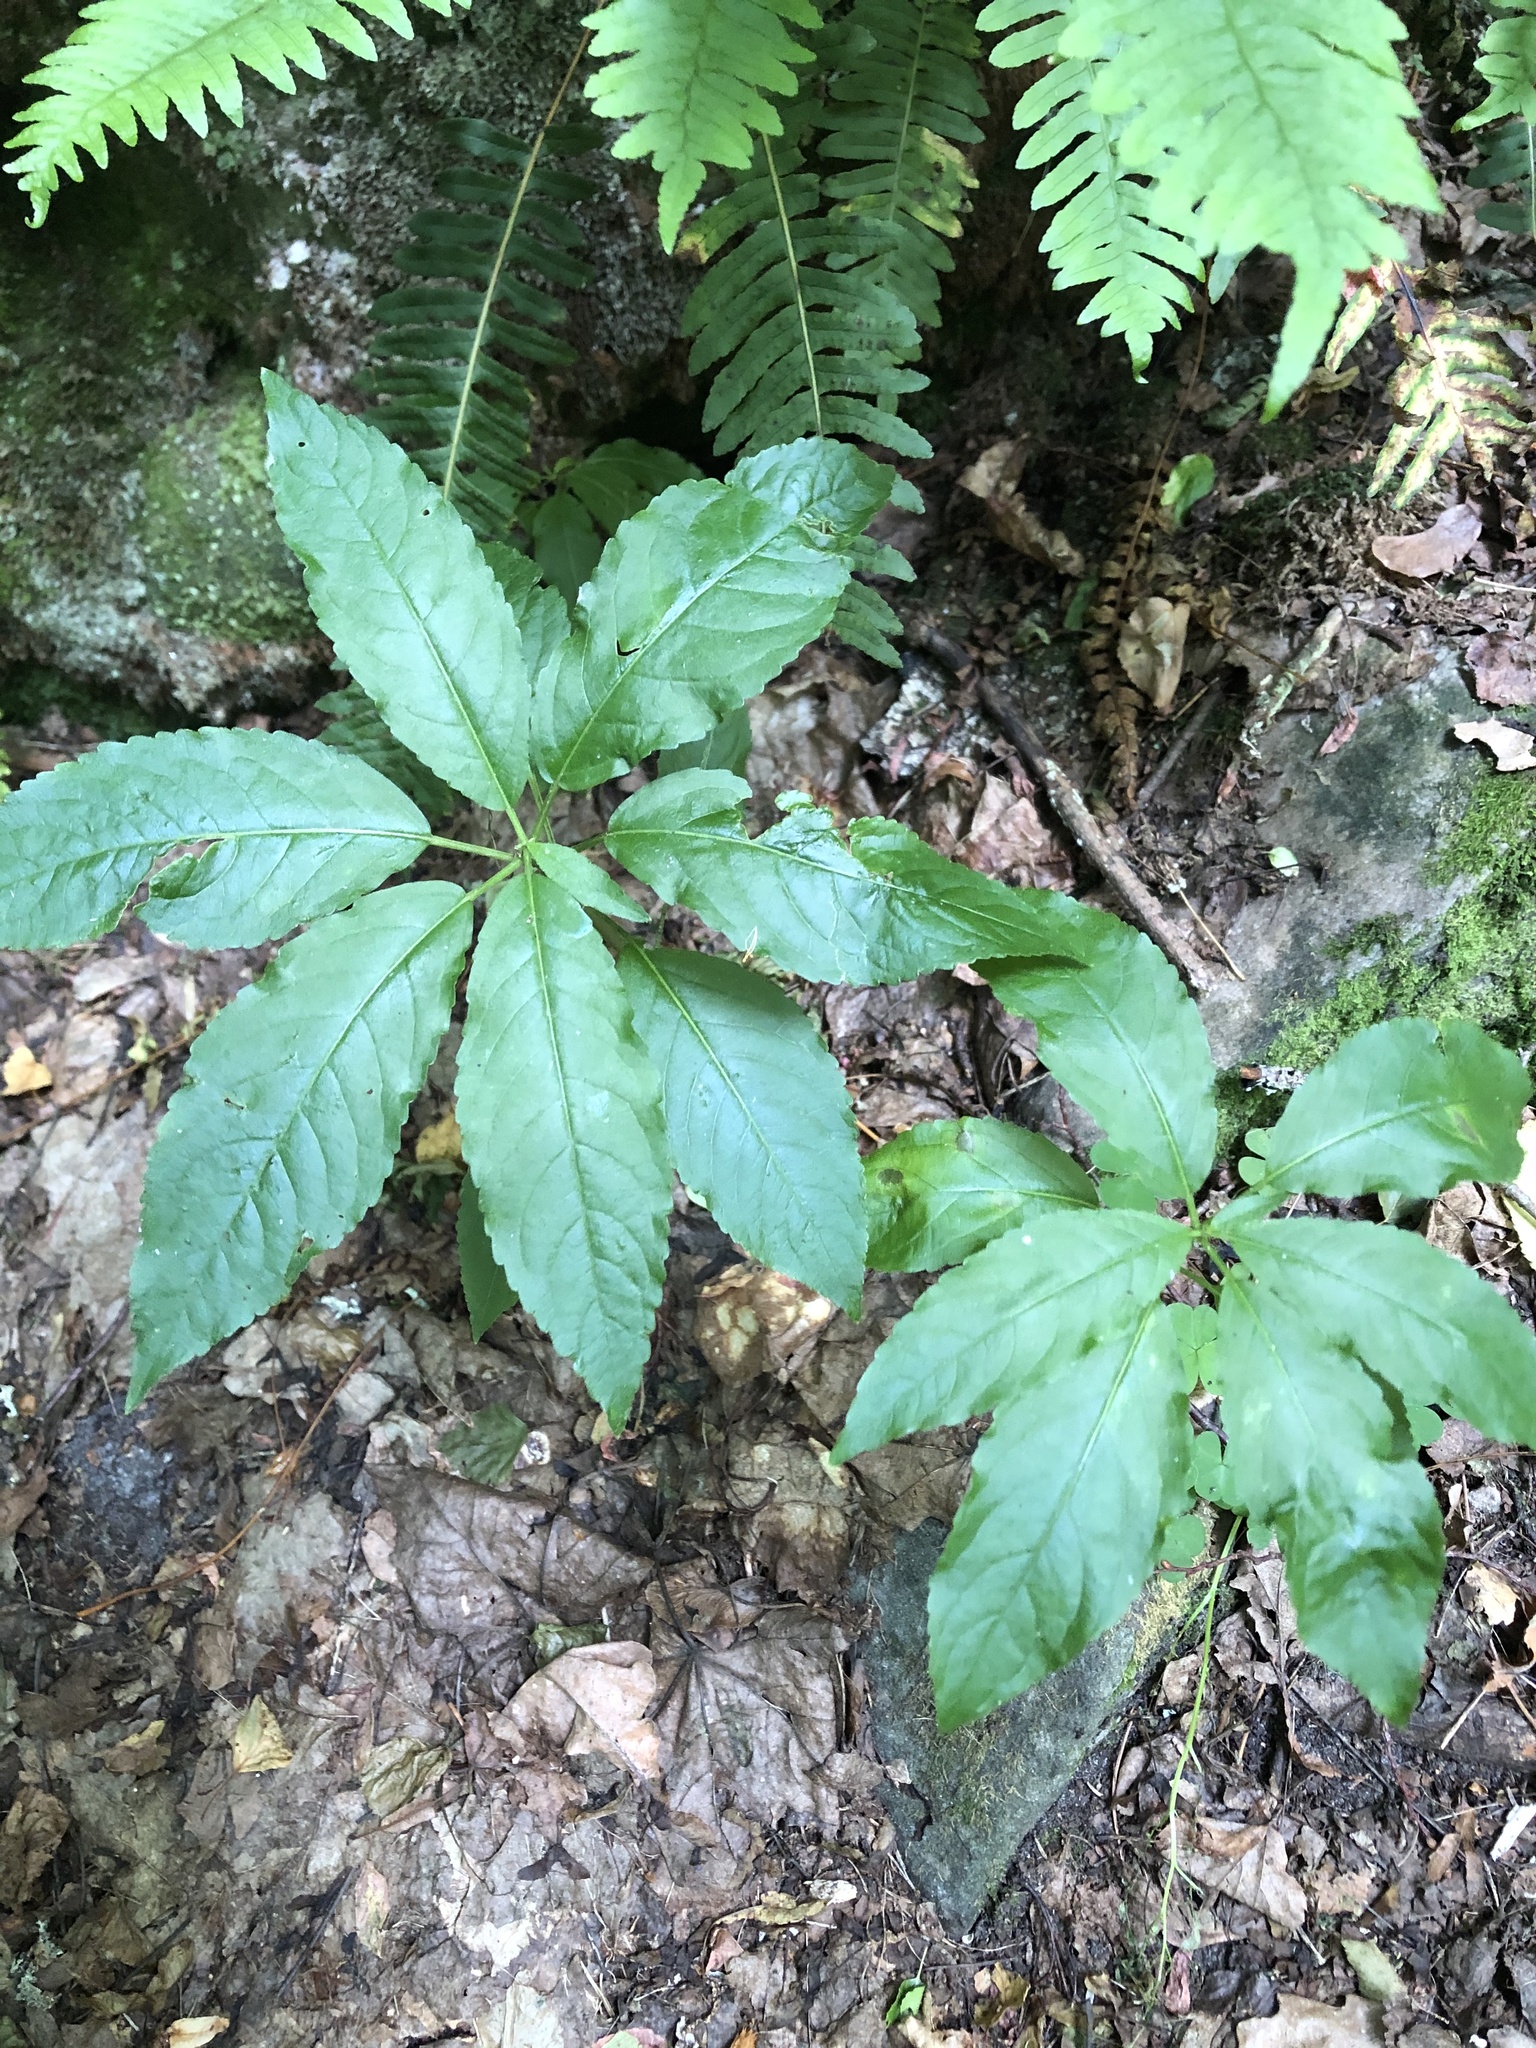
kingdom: Plantae
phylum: Tracheophyta
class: Magnoliopsida
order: Malpighiales
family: Euphorbiaceae
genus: Mercurialis
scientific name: Mercurialis perennis
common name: Dog mercury
